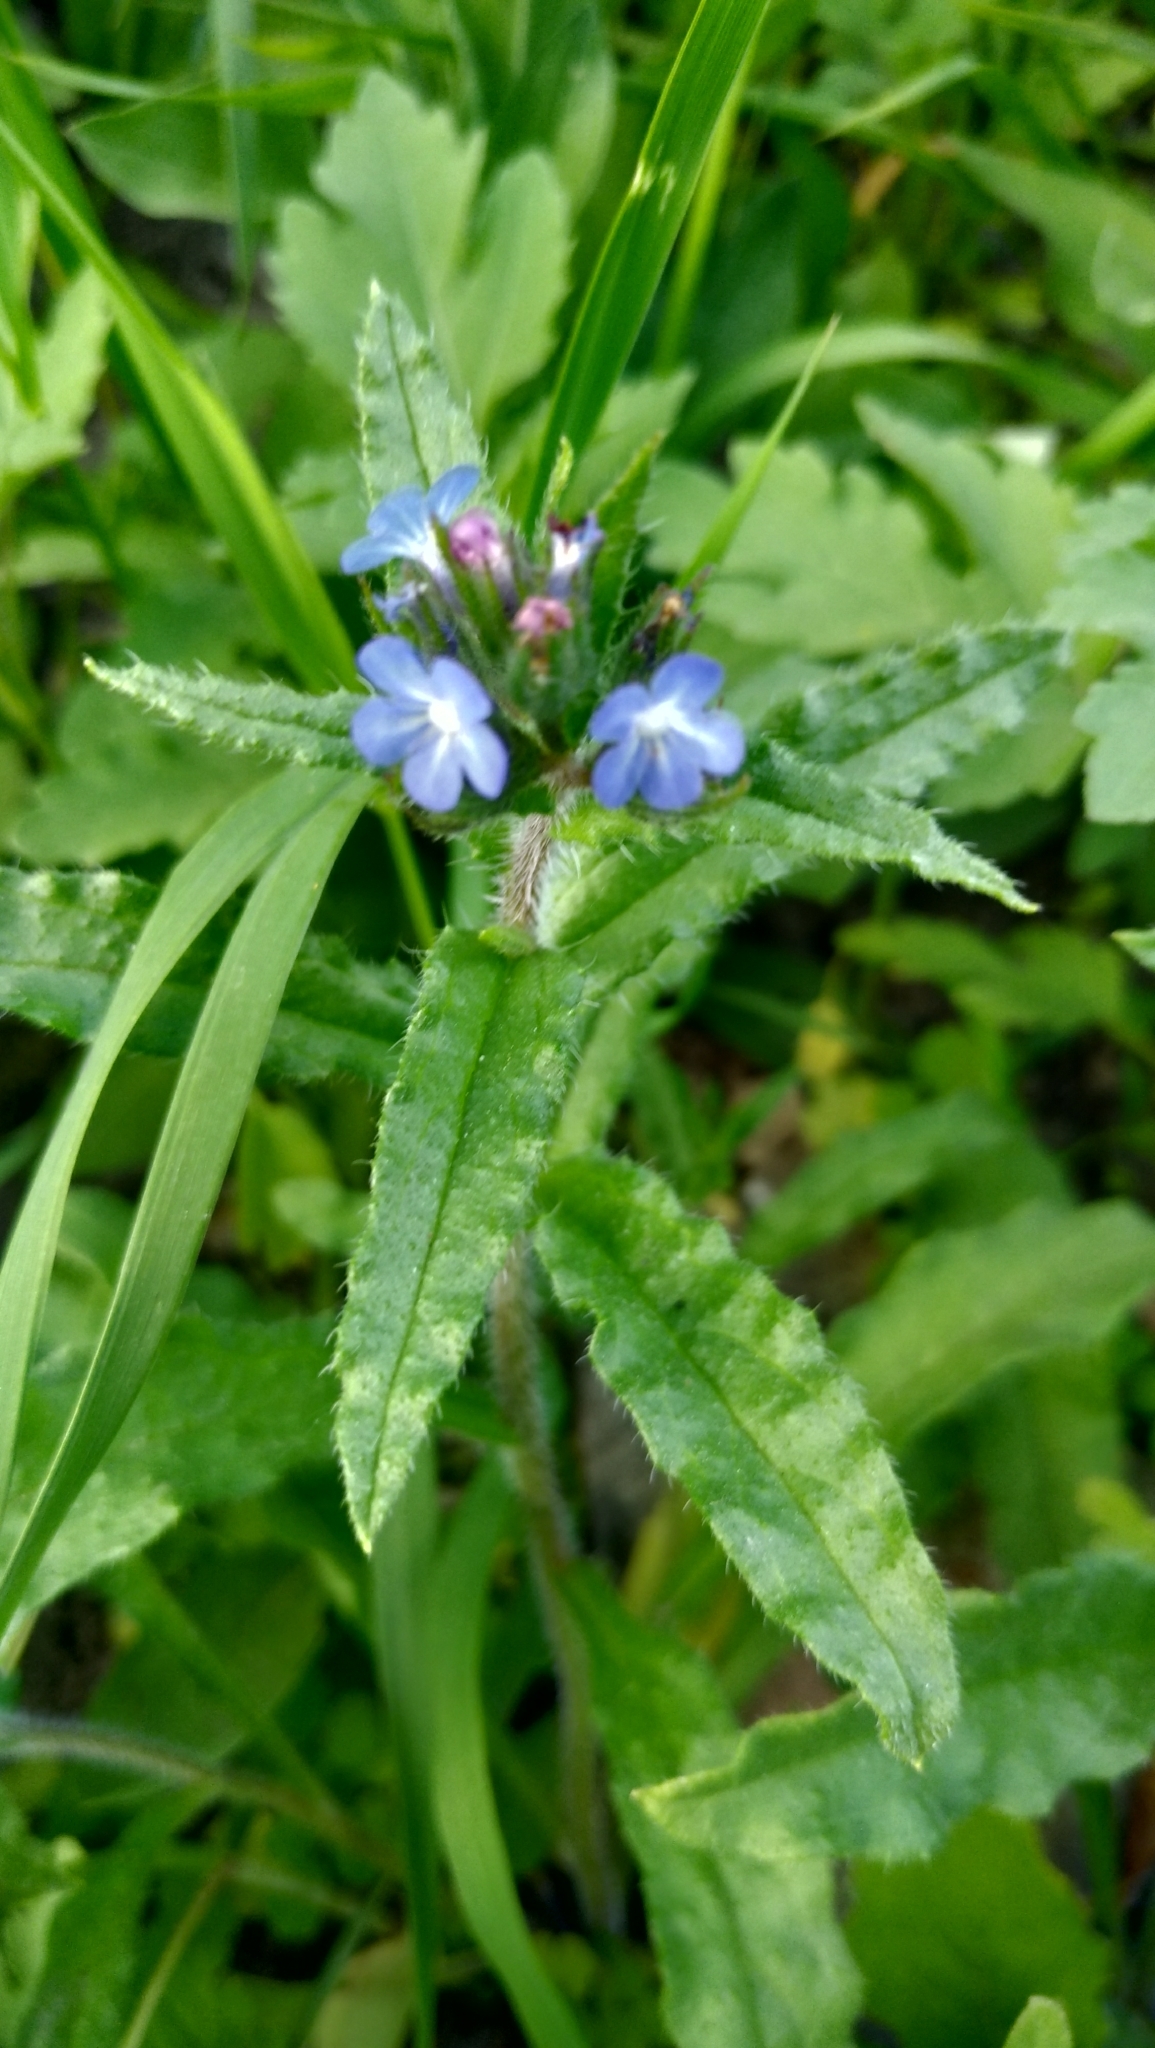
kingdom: Plantae
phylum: Tracheophyta
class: Magnoliopsida
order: Boraginales
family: Boraginaceae
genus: Lycopsis
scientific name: Lycopsis arvensis
